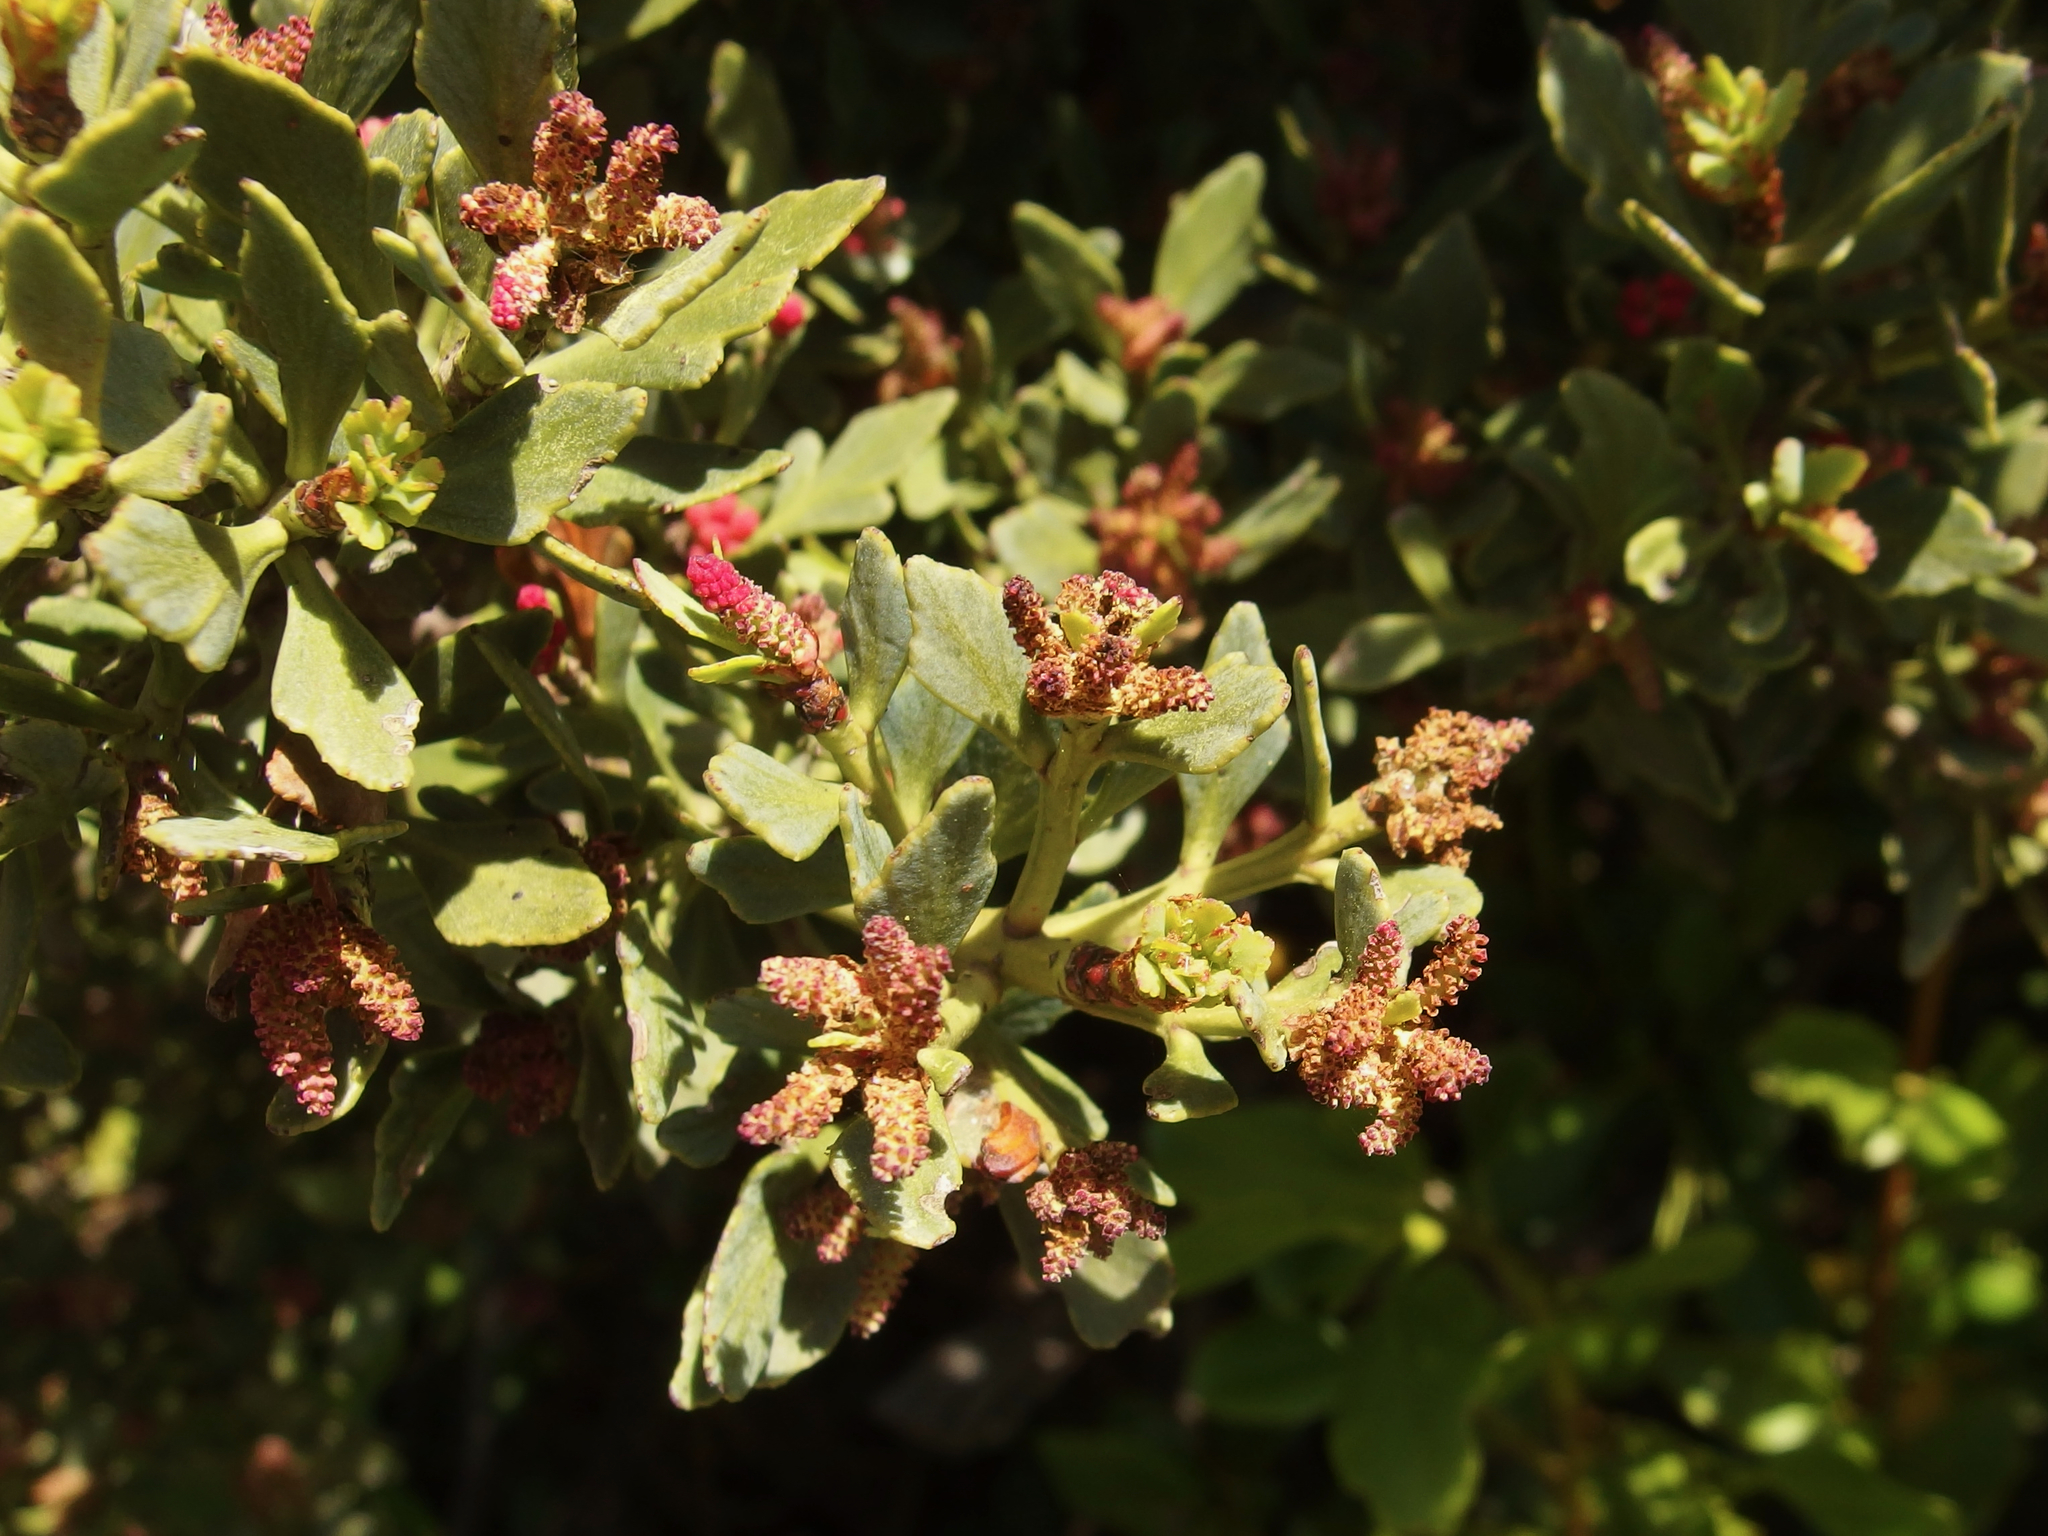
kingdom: Plantae
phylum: Tracheophyta
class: Pinopsida
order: Pinales
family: Phyllocladaceae
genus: Phyllocladus
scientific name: Phyllocladus trichomanoides
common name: Celery pine
